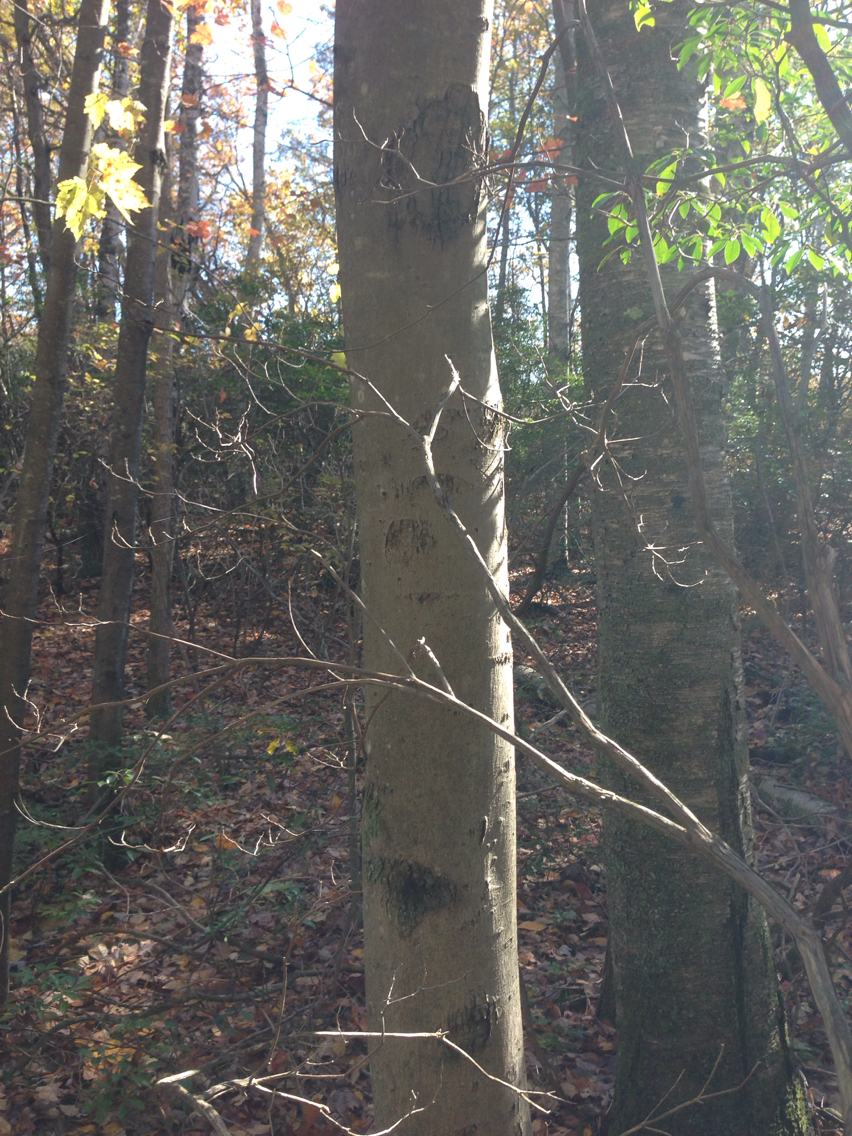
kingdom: Plantae
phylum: Tracheophyta
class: Magnoliopsida
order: Fagales
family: Fagaceae
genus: Fagus
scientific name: Fagus grandifolia
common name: American beech
